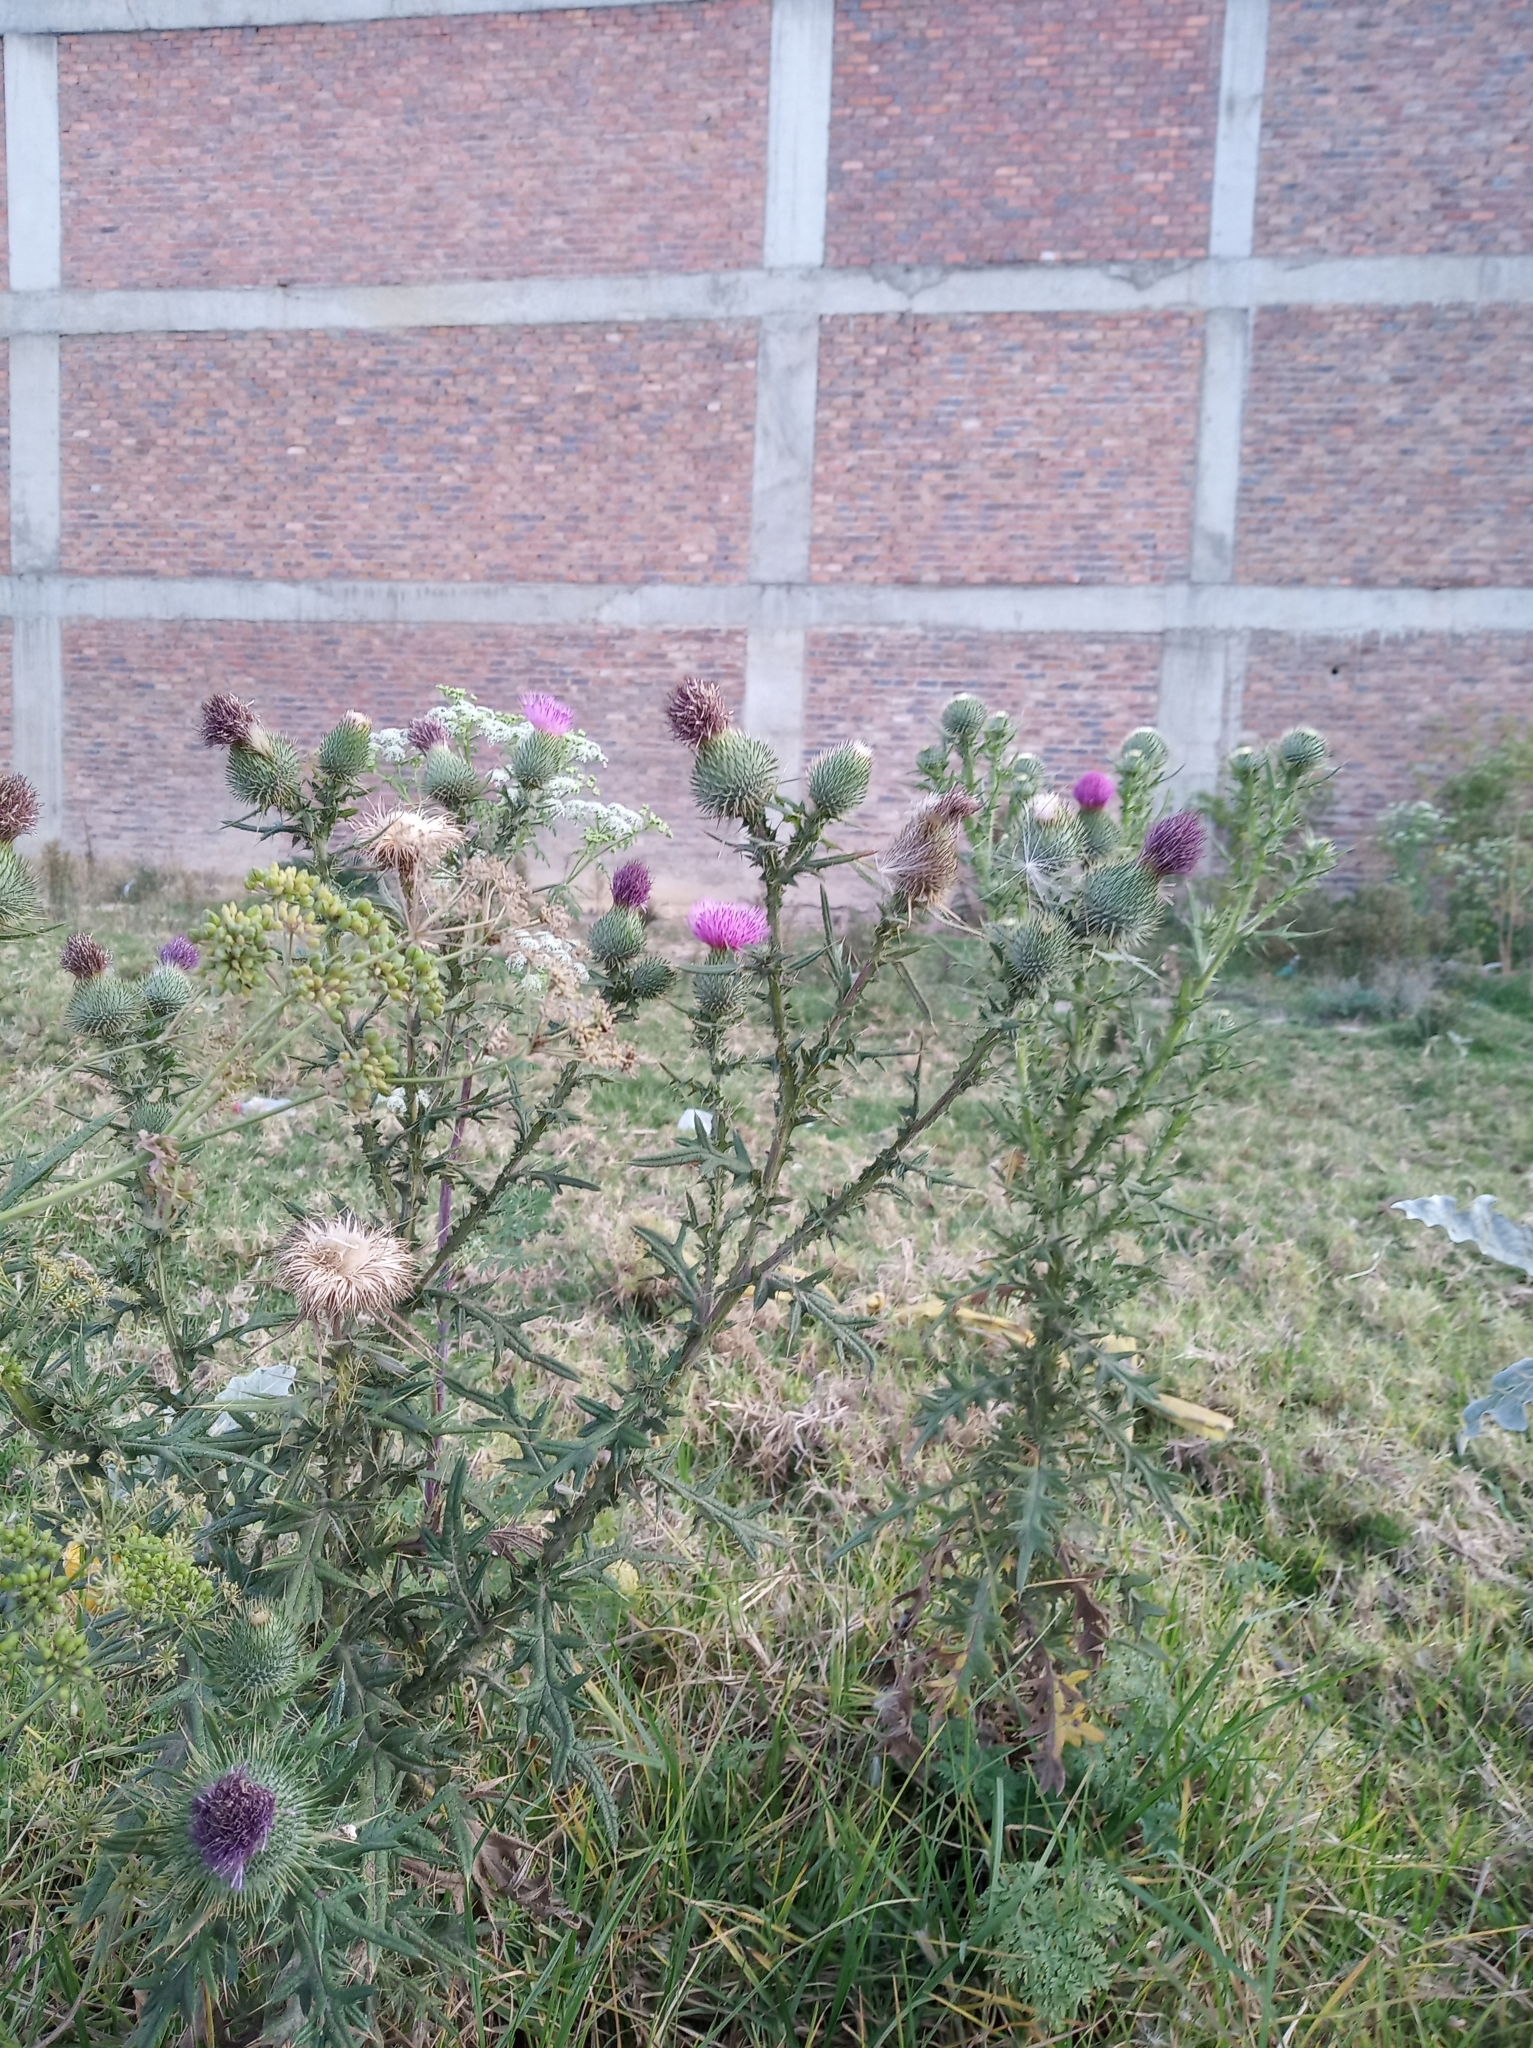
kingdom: Plantae
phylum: Tracheophyta
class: Magnoliopsida
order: Asterales
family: Asteraceae
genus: Cirsium
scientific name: Cirsium vulgare
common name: Bull thistle
